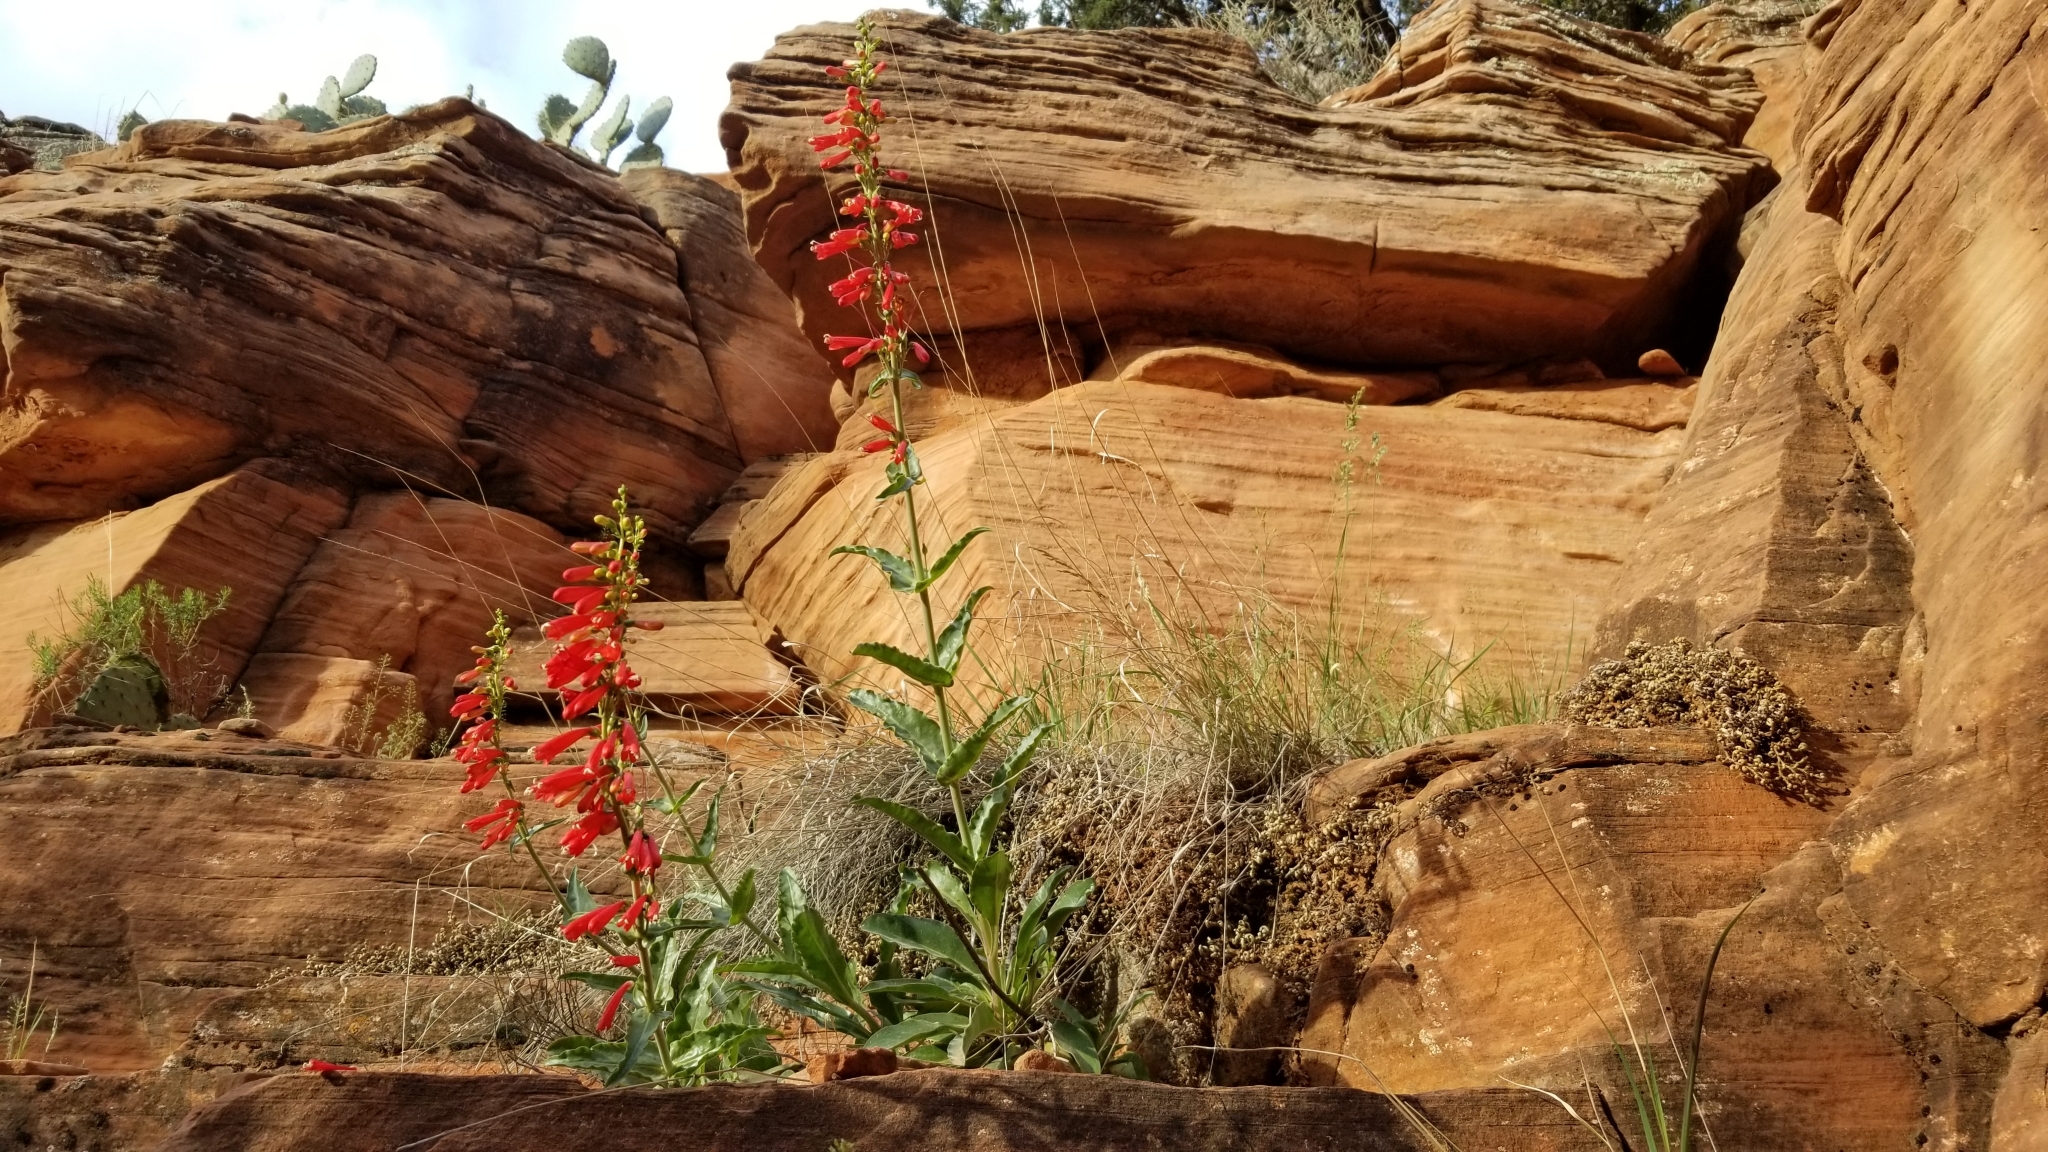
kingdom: Plantae
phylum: Tracheophyta
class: Magnoliopsida
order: Lamiales
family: Plantaginaceae
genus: Penstemon
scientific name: Penstemon eatonii
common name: Eaton's penstemon
